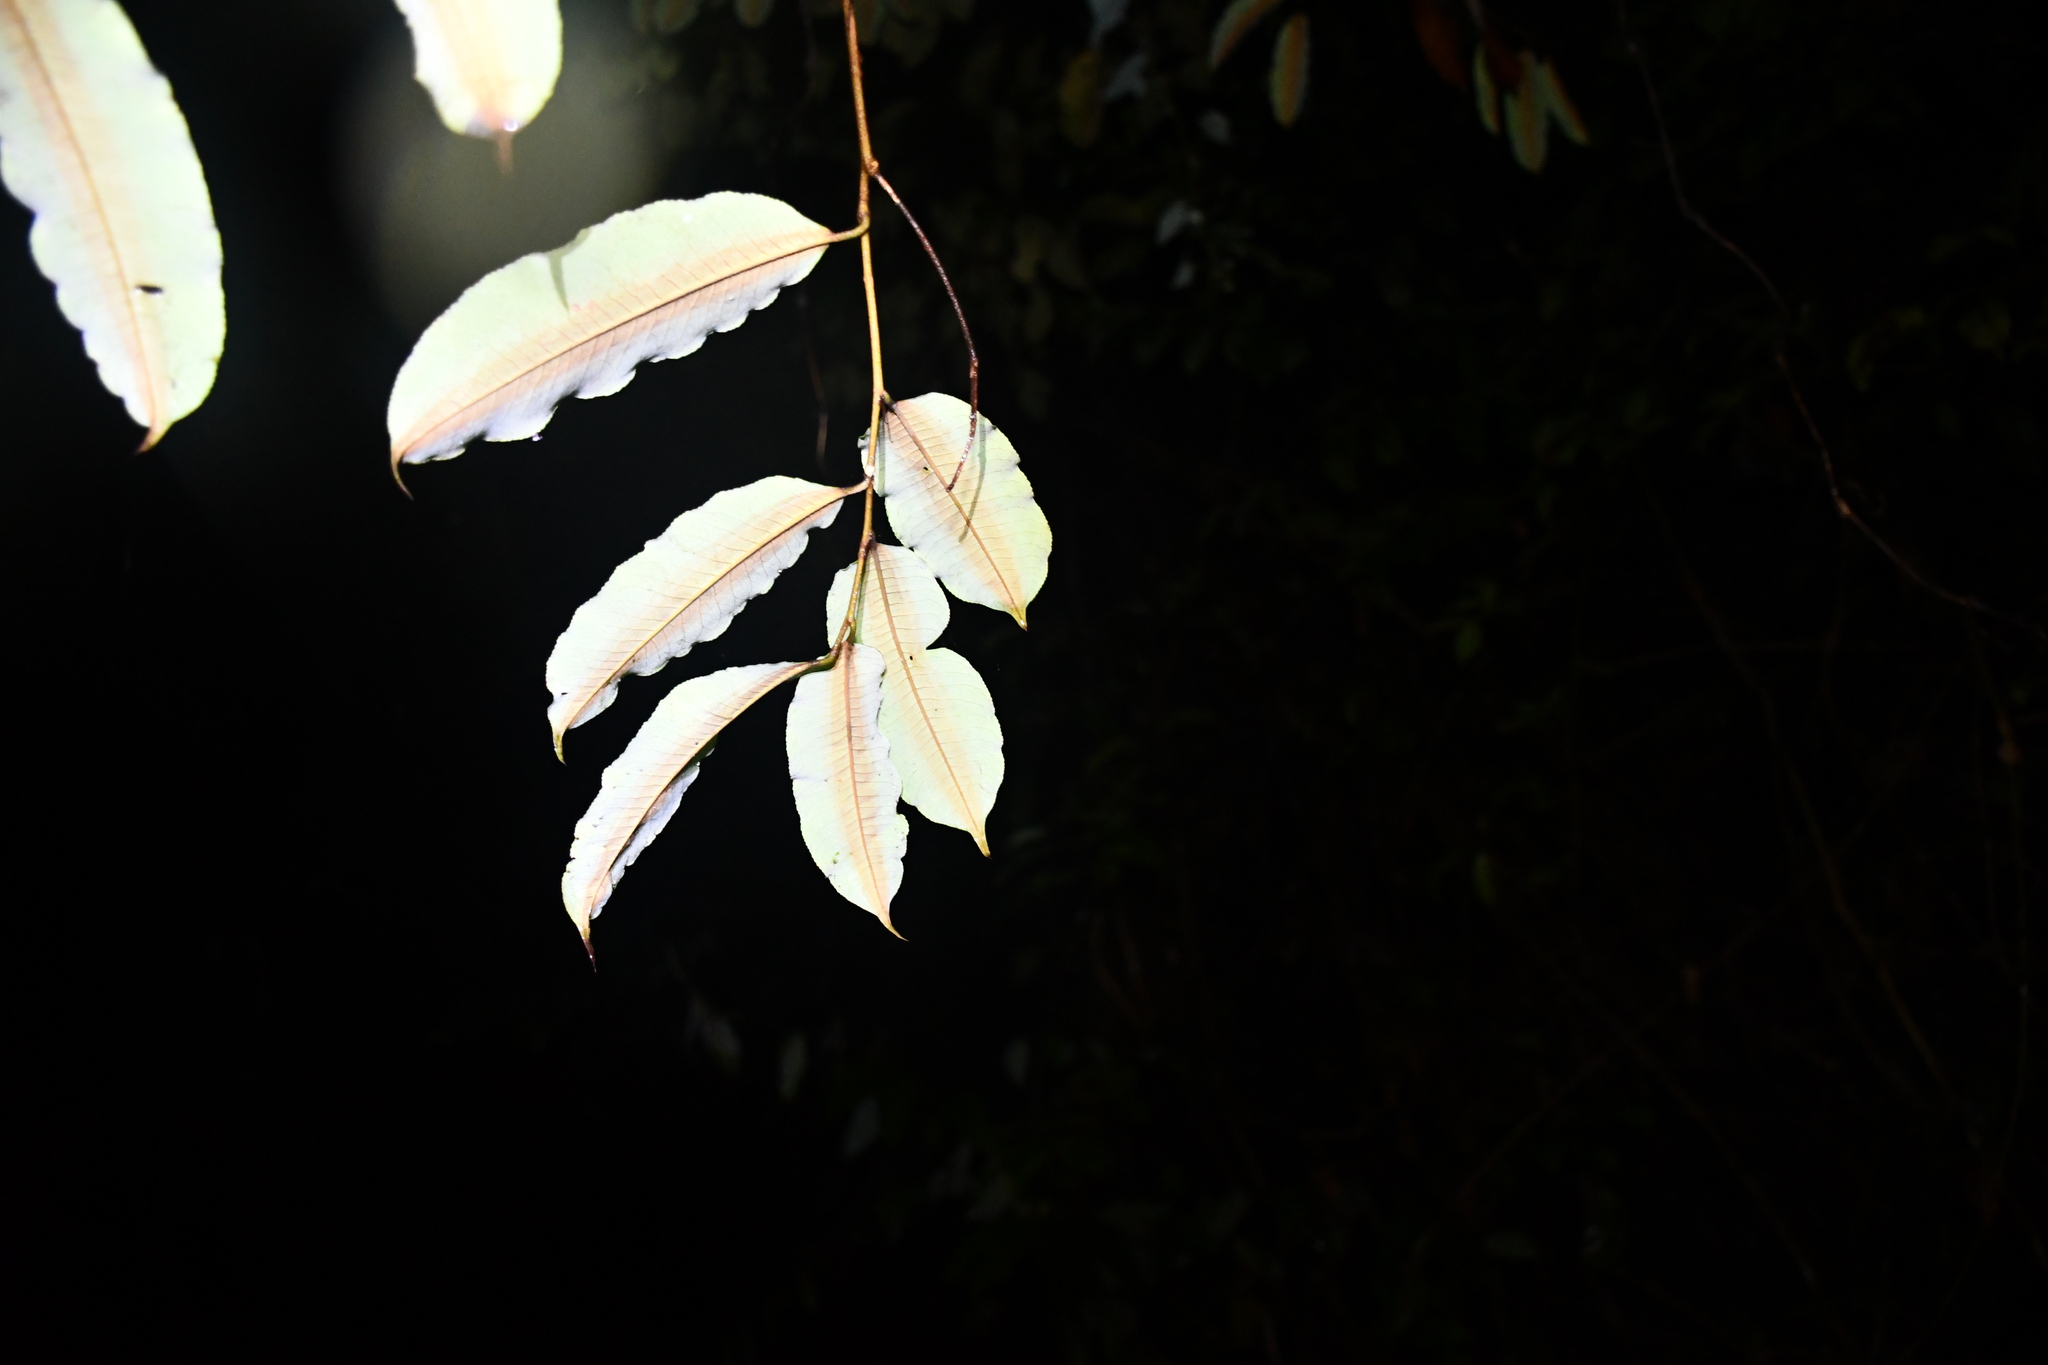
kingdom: Plantae
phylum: Tracheophyta
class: Magnoliopsida
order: Malvales
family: Malvaceae
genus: Lueheopsis
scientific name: Lueheopsis duckeana
